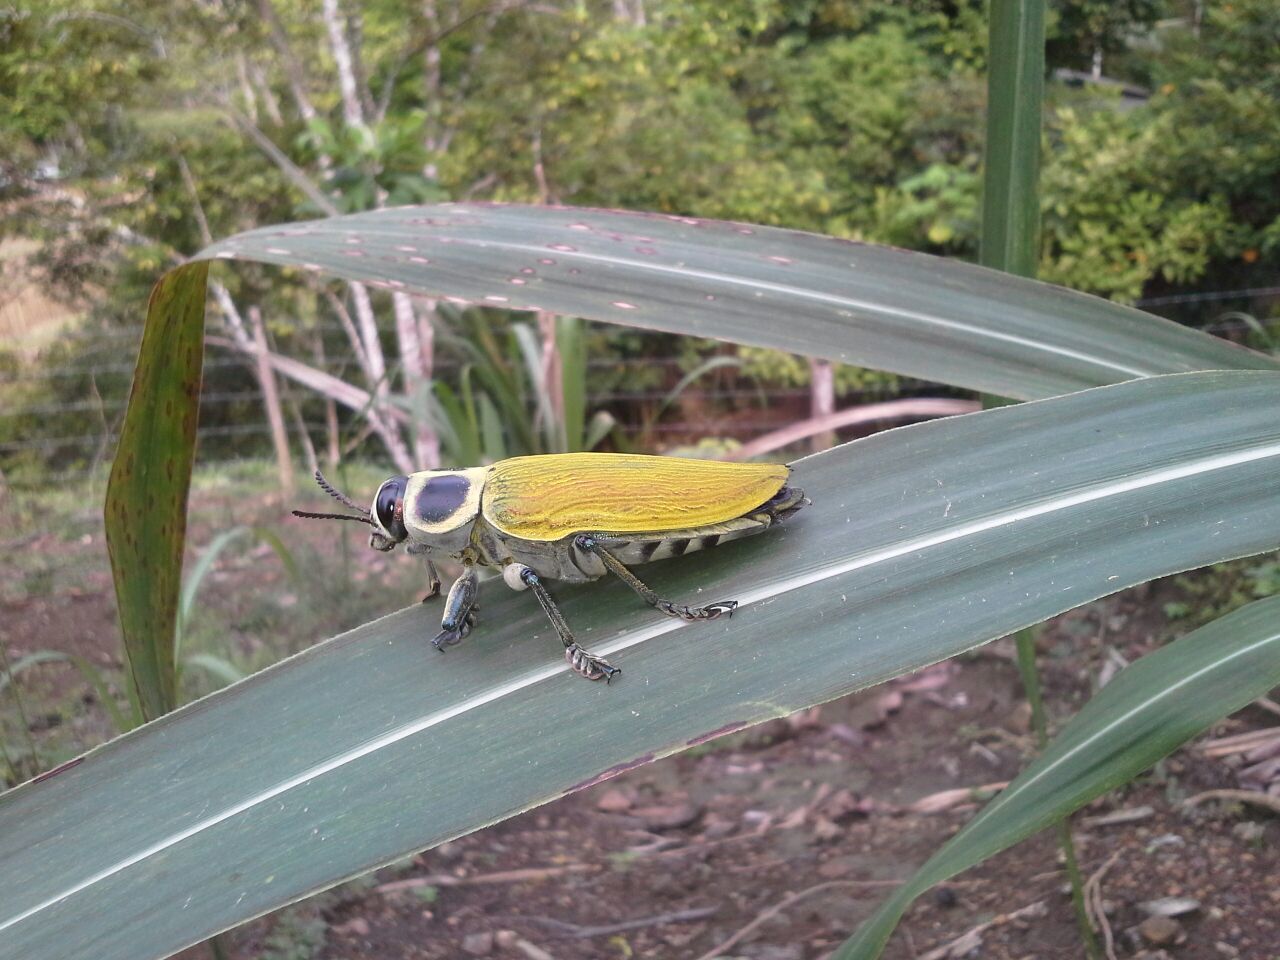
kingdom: Animalia
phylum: Arthropoda
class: Insecta
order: Coleoptera
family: Buprestidae
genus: Euchroma
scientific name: Euchroma giganteum
